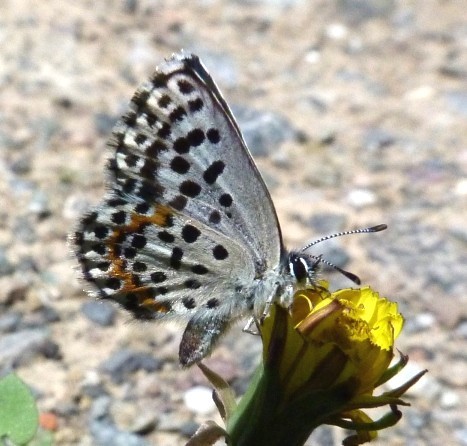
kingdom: Animalia
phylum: Arthropoda
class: Insecta
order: Lepidoptera
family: Lycaenidae
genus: Scolitantides
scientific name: Scolitantides orion
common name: Chequered blue
